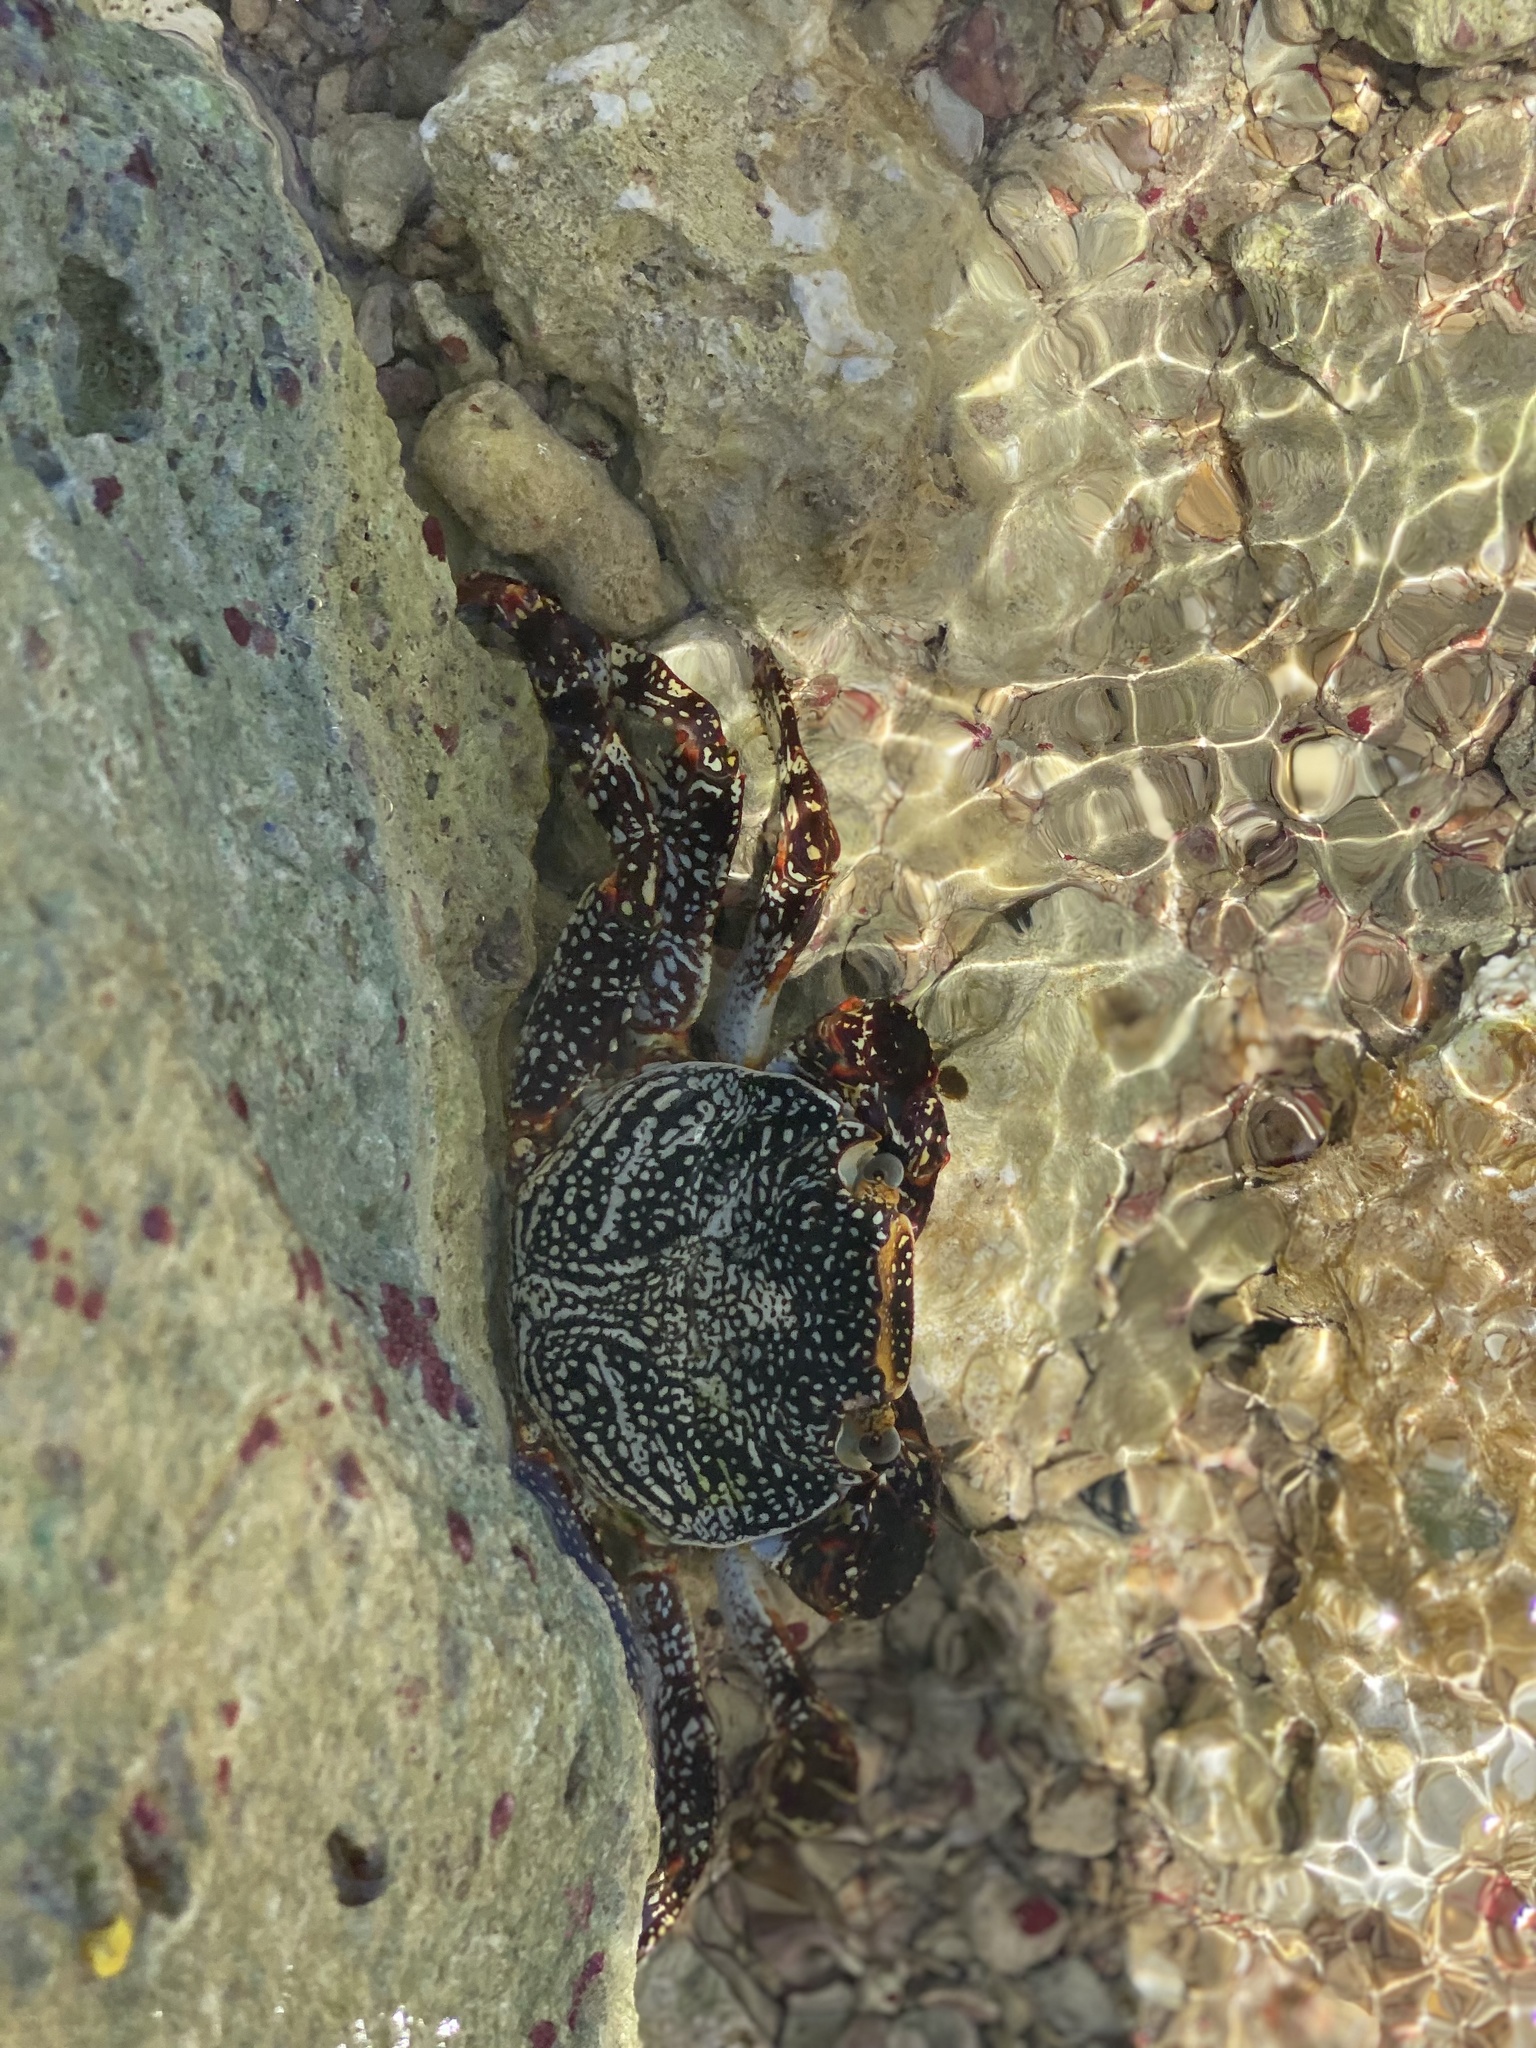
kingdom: Animalia
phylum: Arthropoda
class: Malacostraca
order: Decapoda
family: Grapsidae
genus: Grapsus
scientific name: Grapsus grapsus
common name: Sally lightfoot
